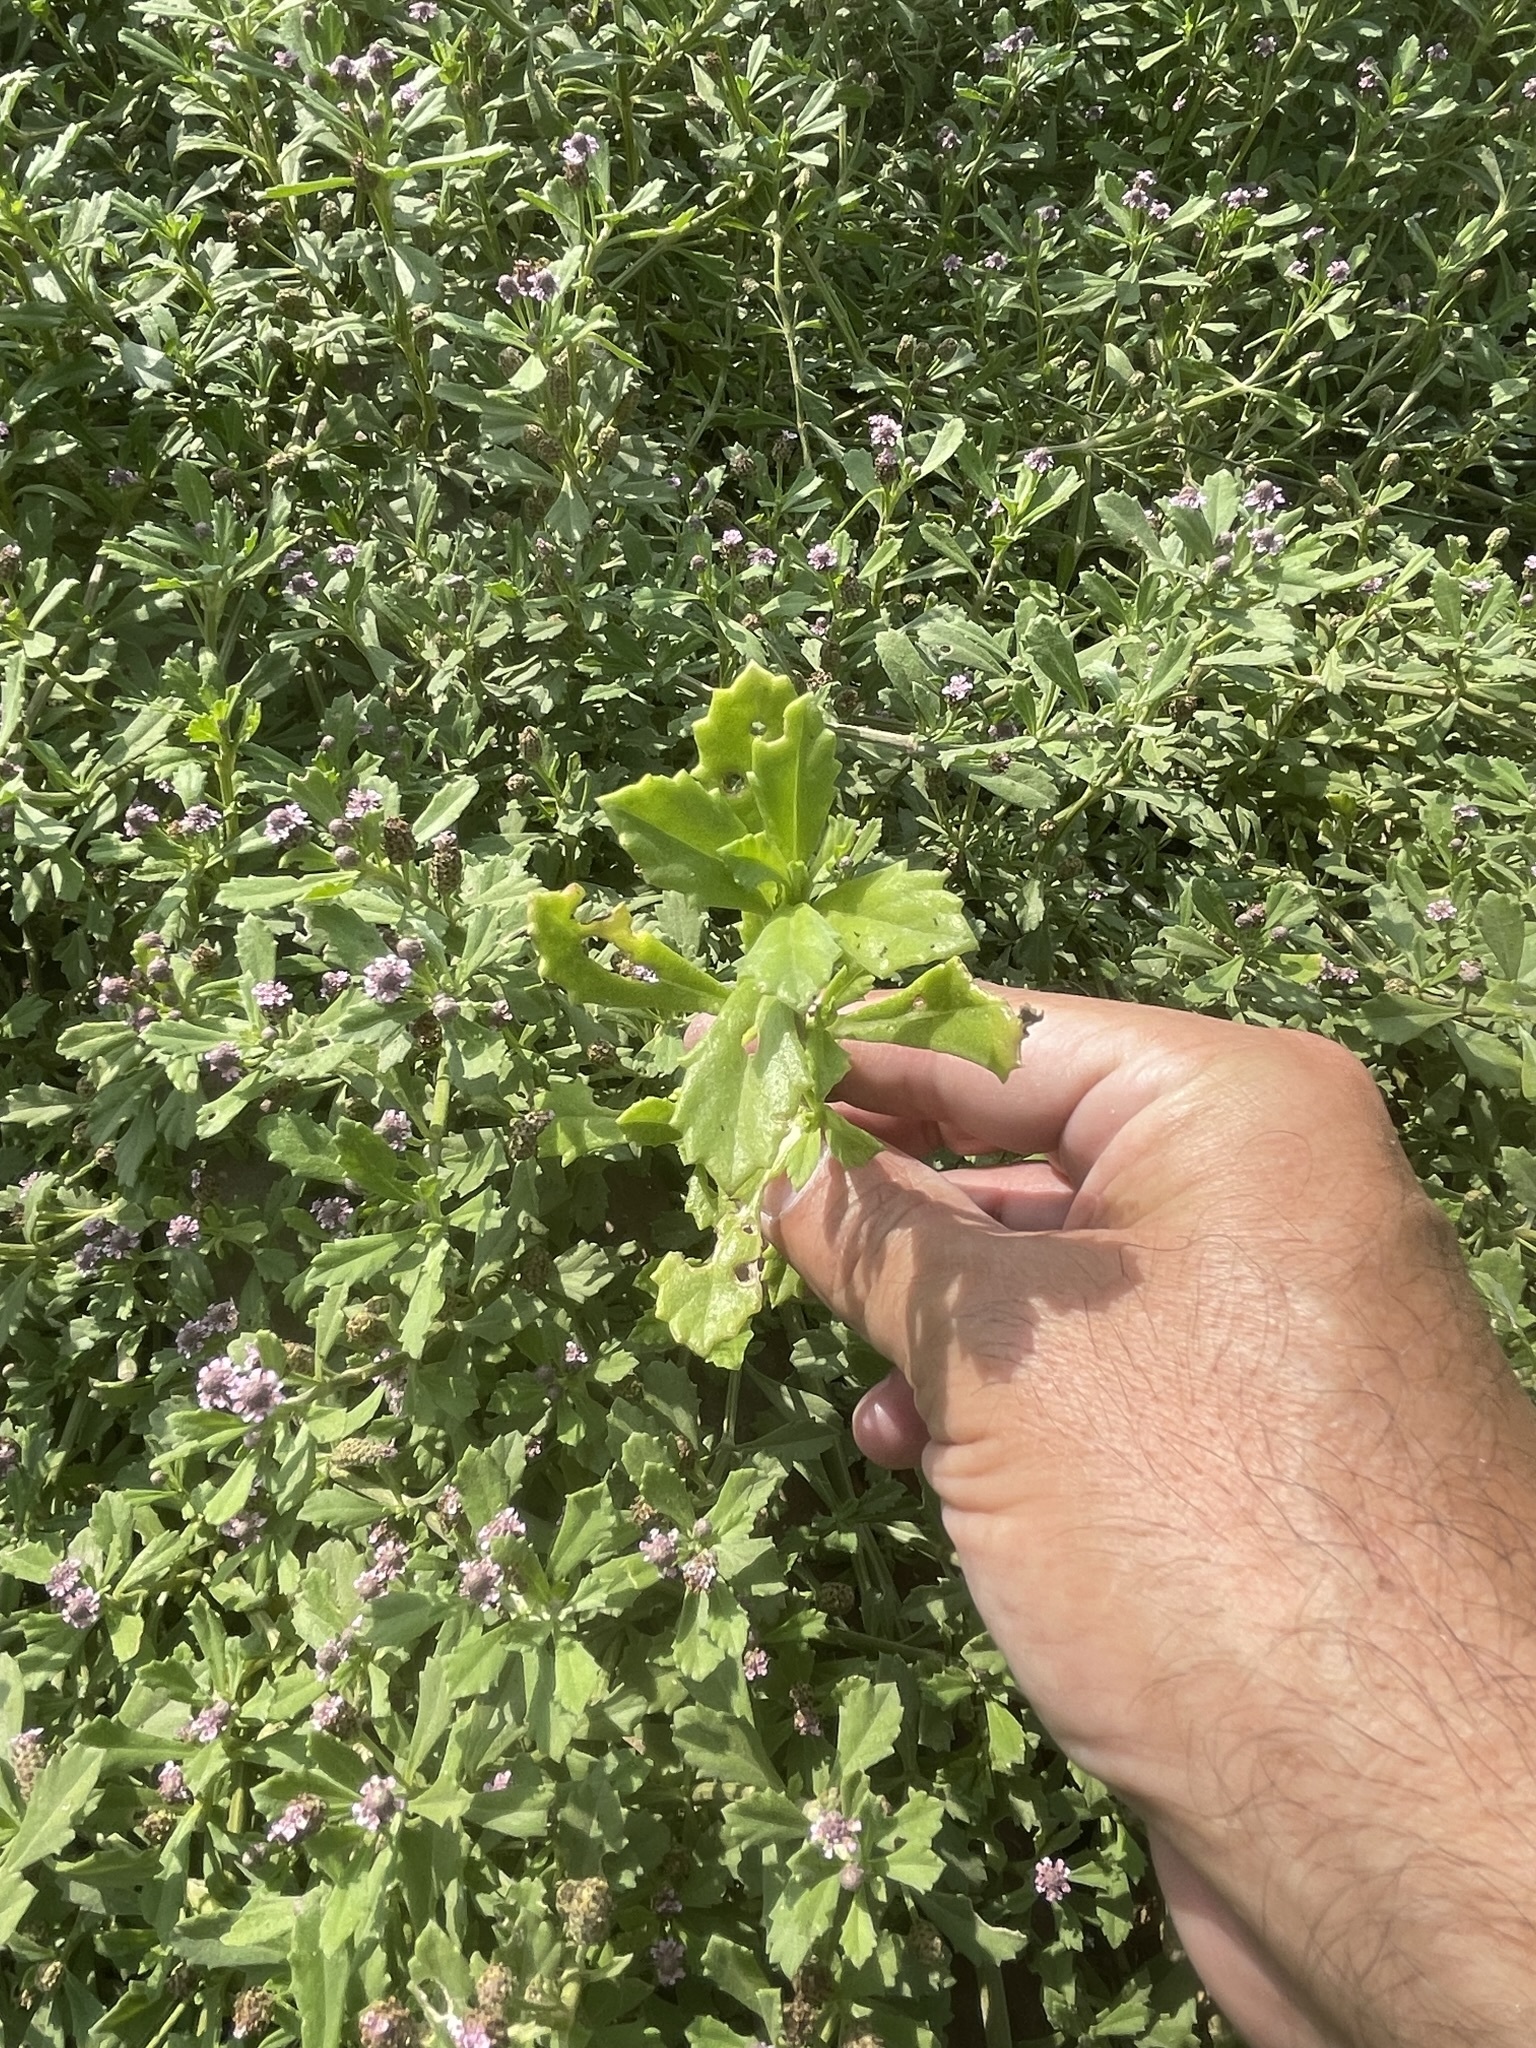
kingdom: Plantae
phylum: Tracheophyta
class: Magnoliopsida
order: Lamiales
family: Verbenaceae
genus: Phyla
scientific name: Phyla nodiflora
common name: Frogfruit
